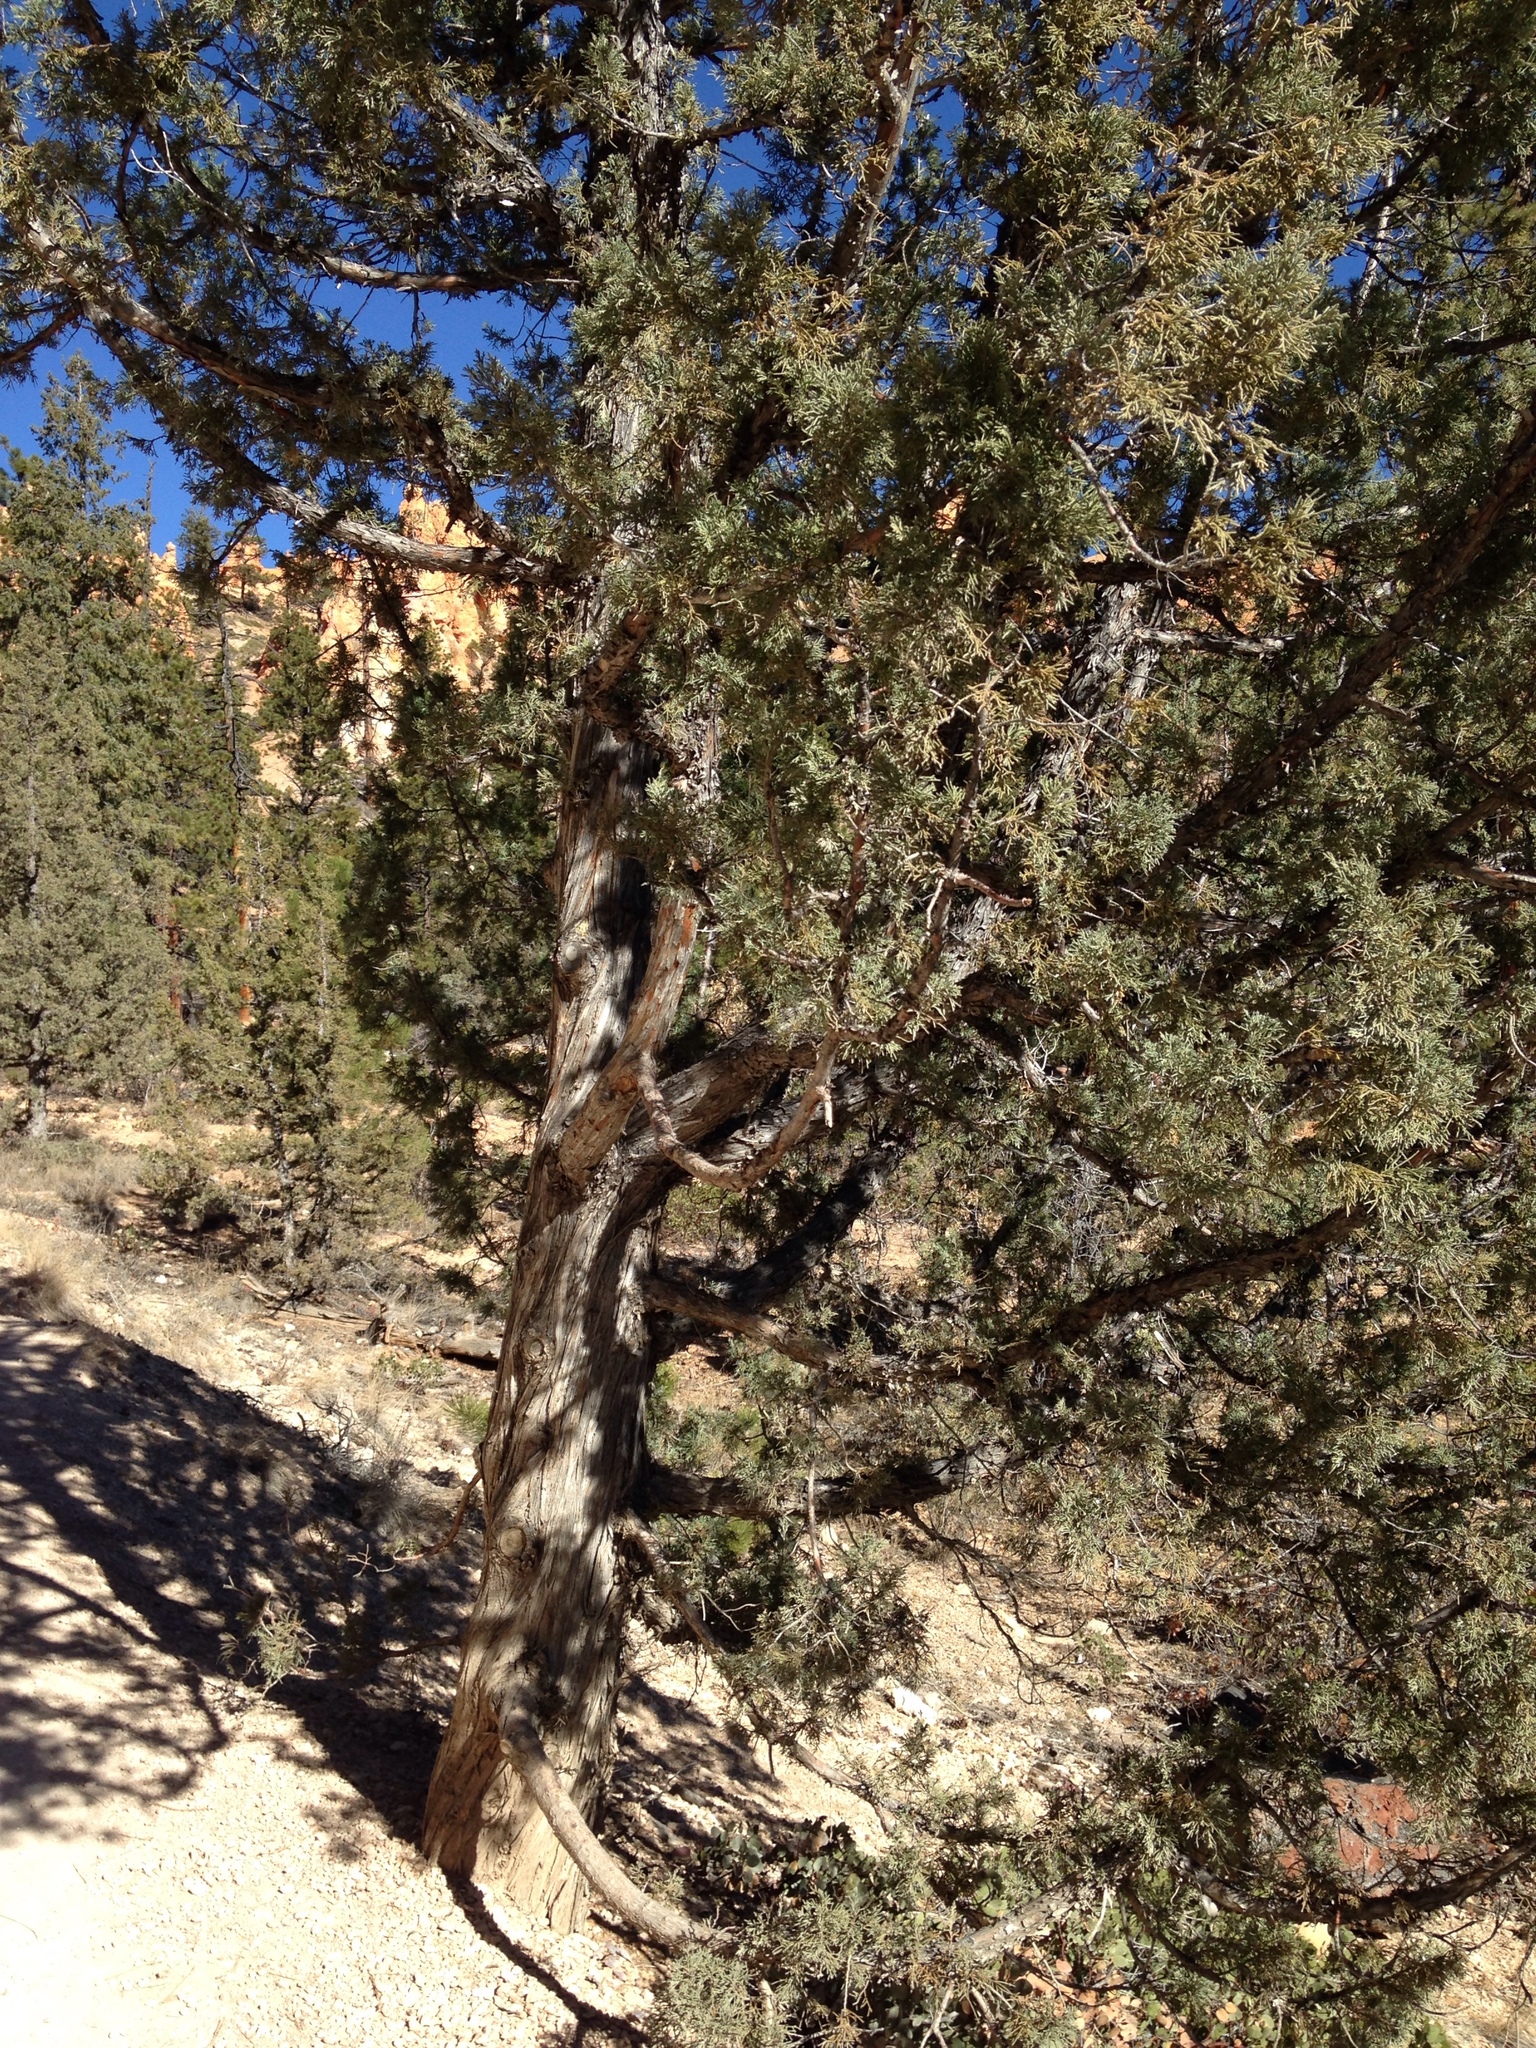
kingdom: Plantae
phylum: Tracheophyta
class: Pinopsida
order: Pinales
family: Cupressaceae
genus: Juniperus
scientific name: Juniperus osteosperma
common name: Utah juniper
